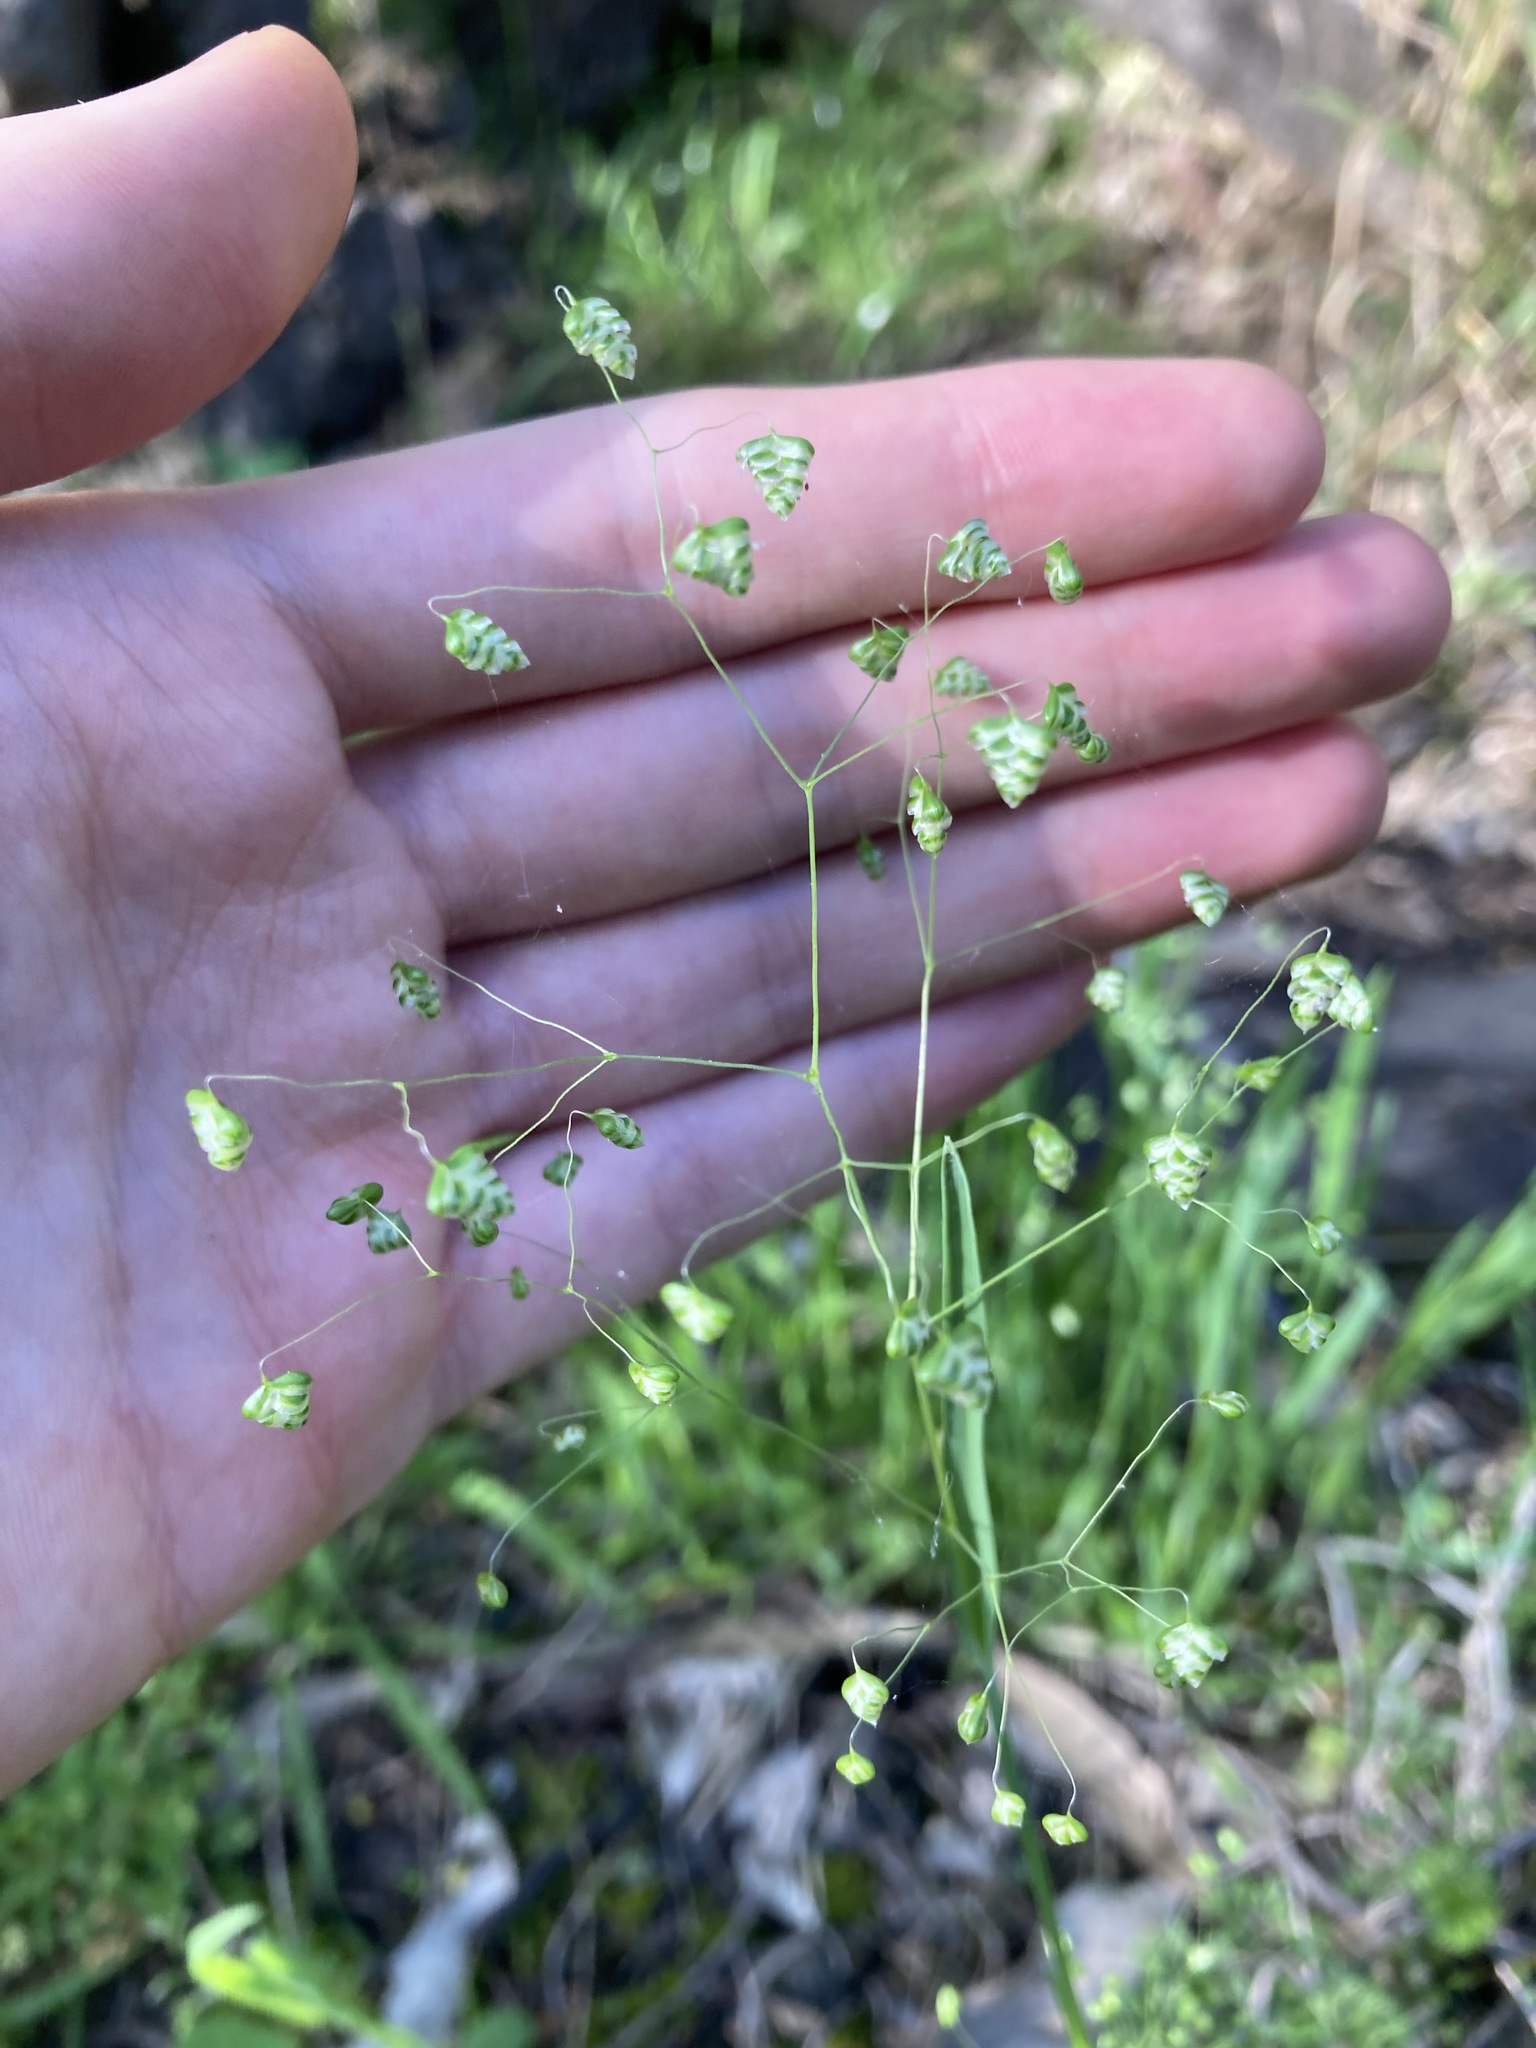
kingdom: Plantae
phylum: Tracheophyta
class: Liliopsida
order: Poales
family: Poaceae
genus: Briza
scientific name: Briza minor
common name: Lesser quaking-grass
